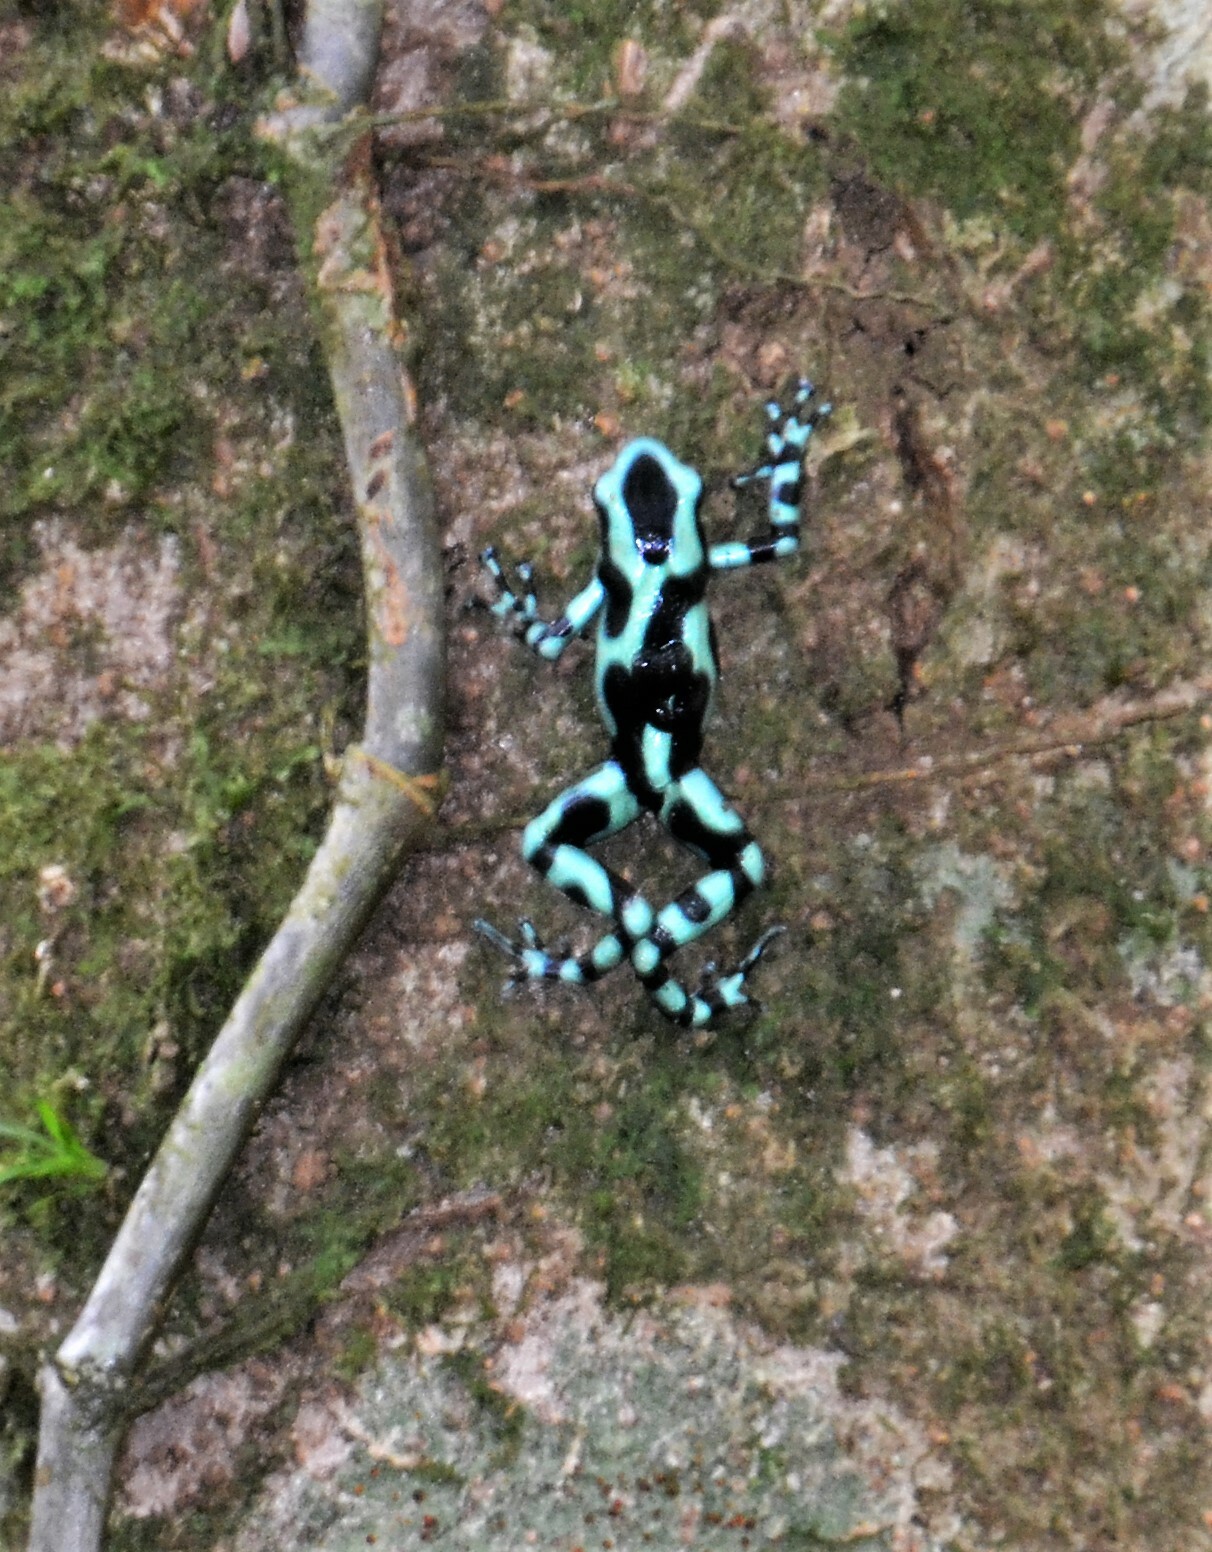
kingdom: Animalia
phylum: Chordata
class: Amphibia
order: Anura
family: Dendrobatidae
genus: Dendrobates
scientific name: Dendrobates auratus
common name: Green and black poison dart frog
